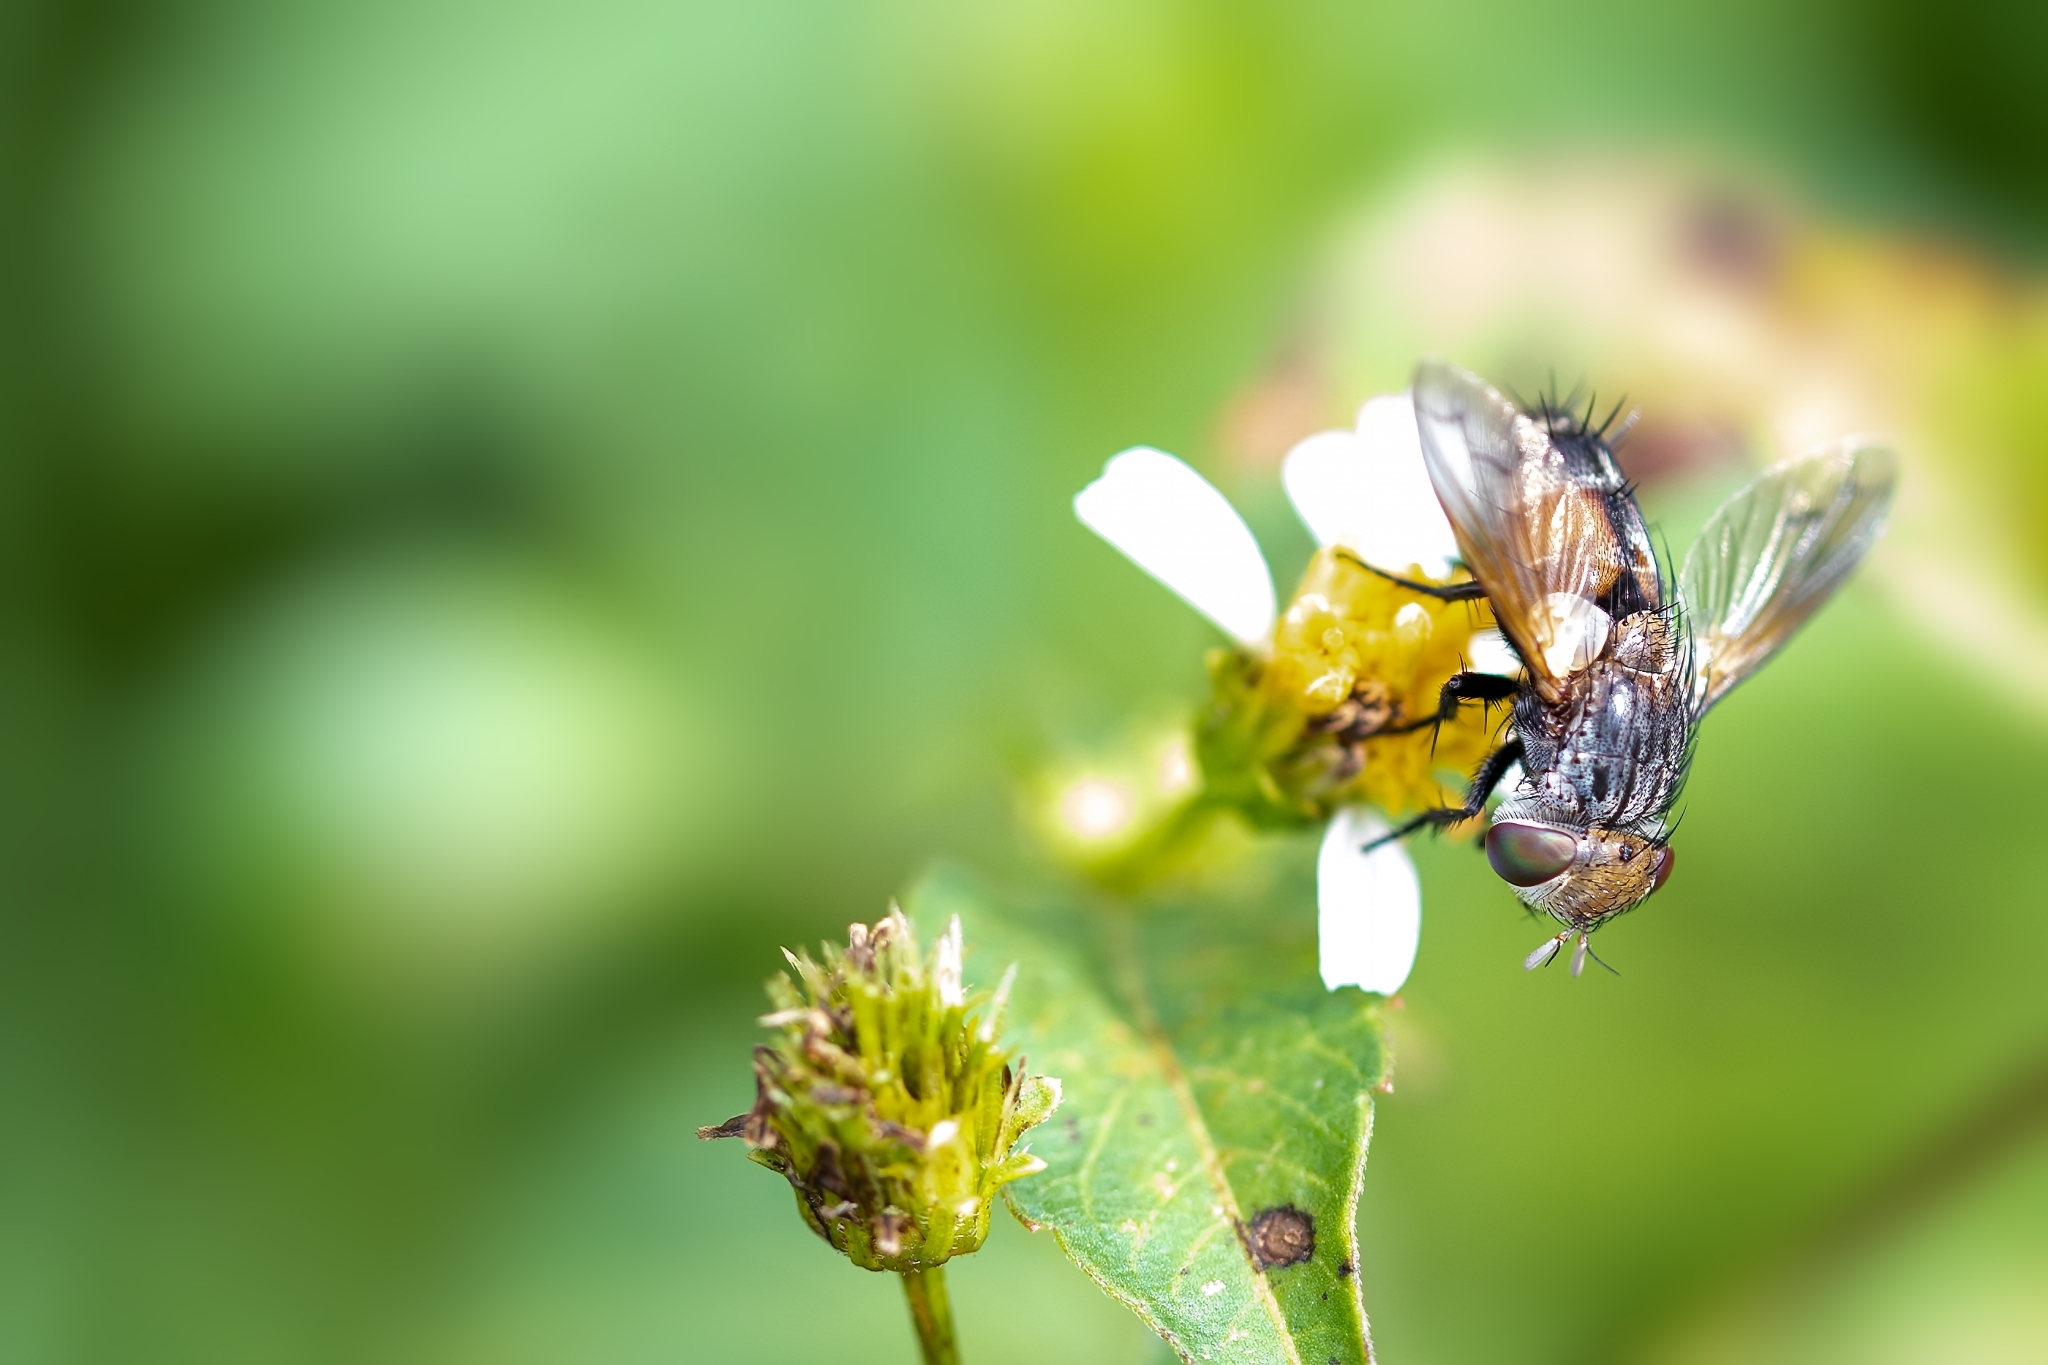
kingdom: Animalia
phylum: Arthropoda
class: Insecta
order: Diptera
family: Tachinidae
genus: Gonia
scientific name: Gonia crassicornis
